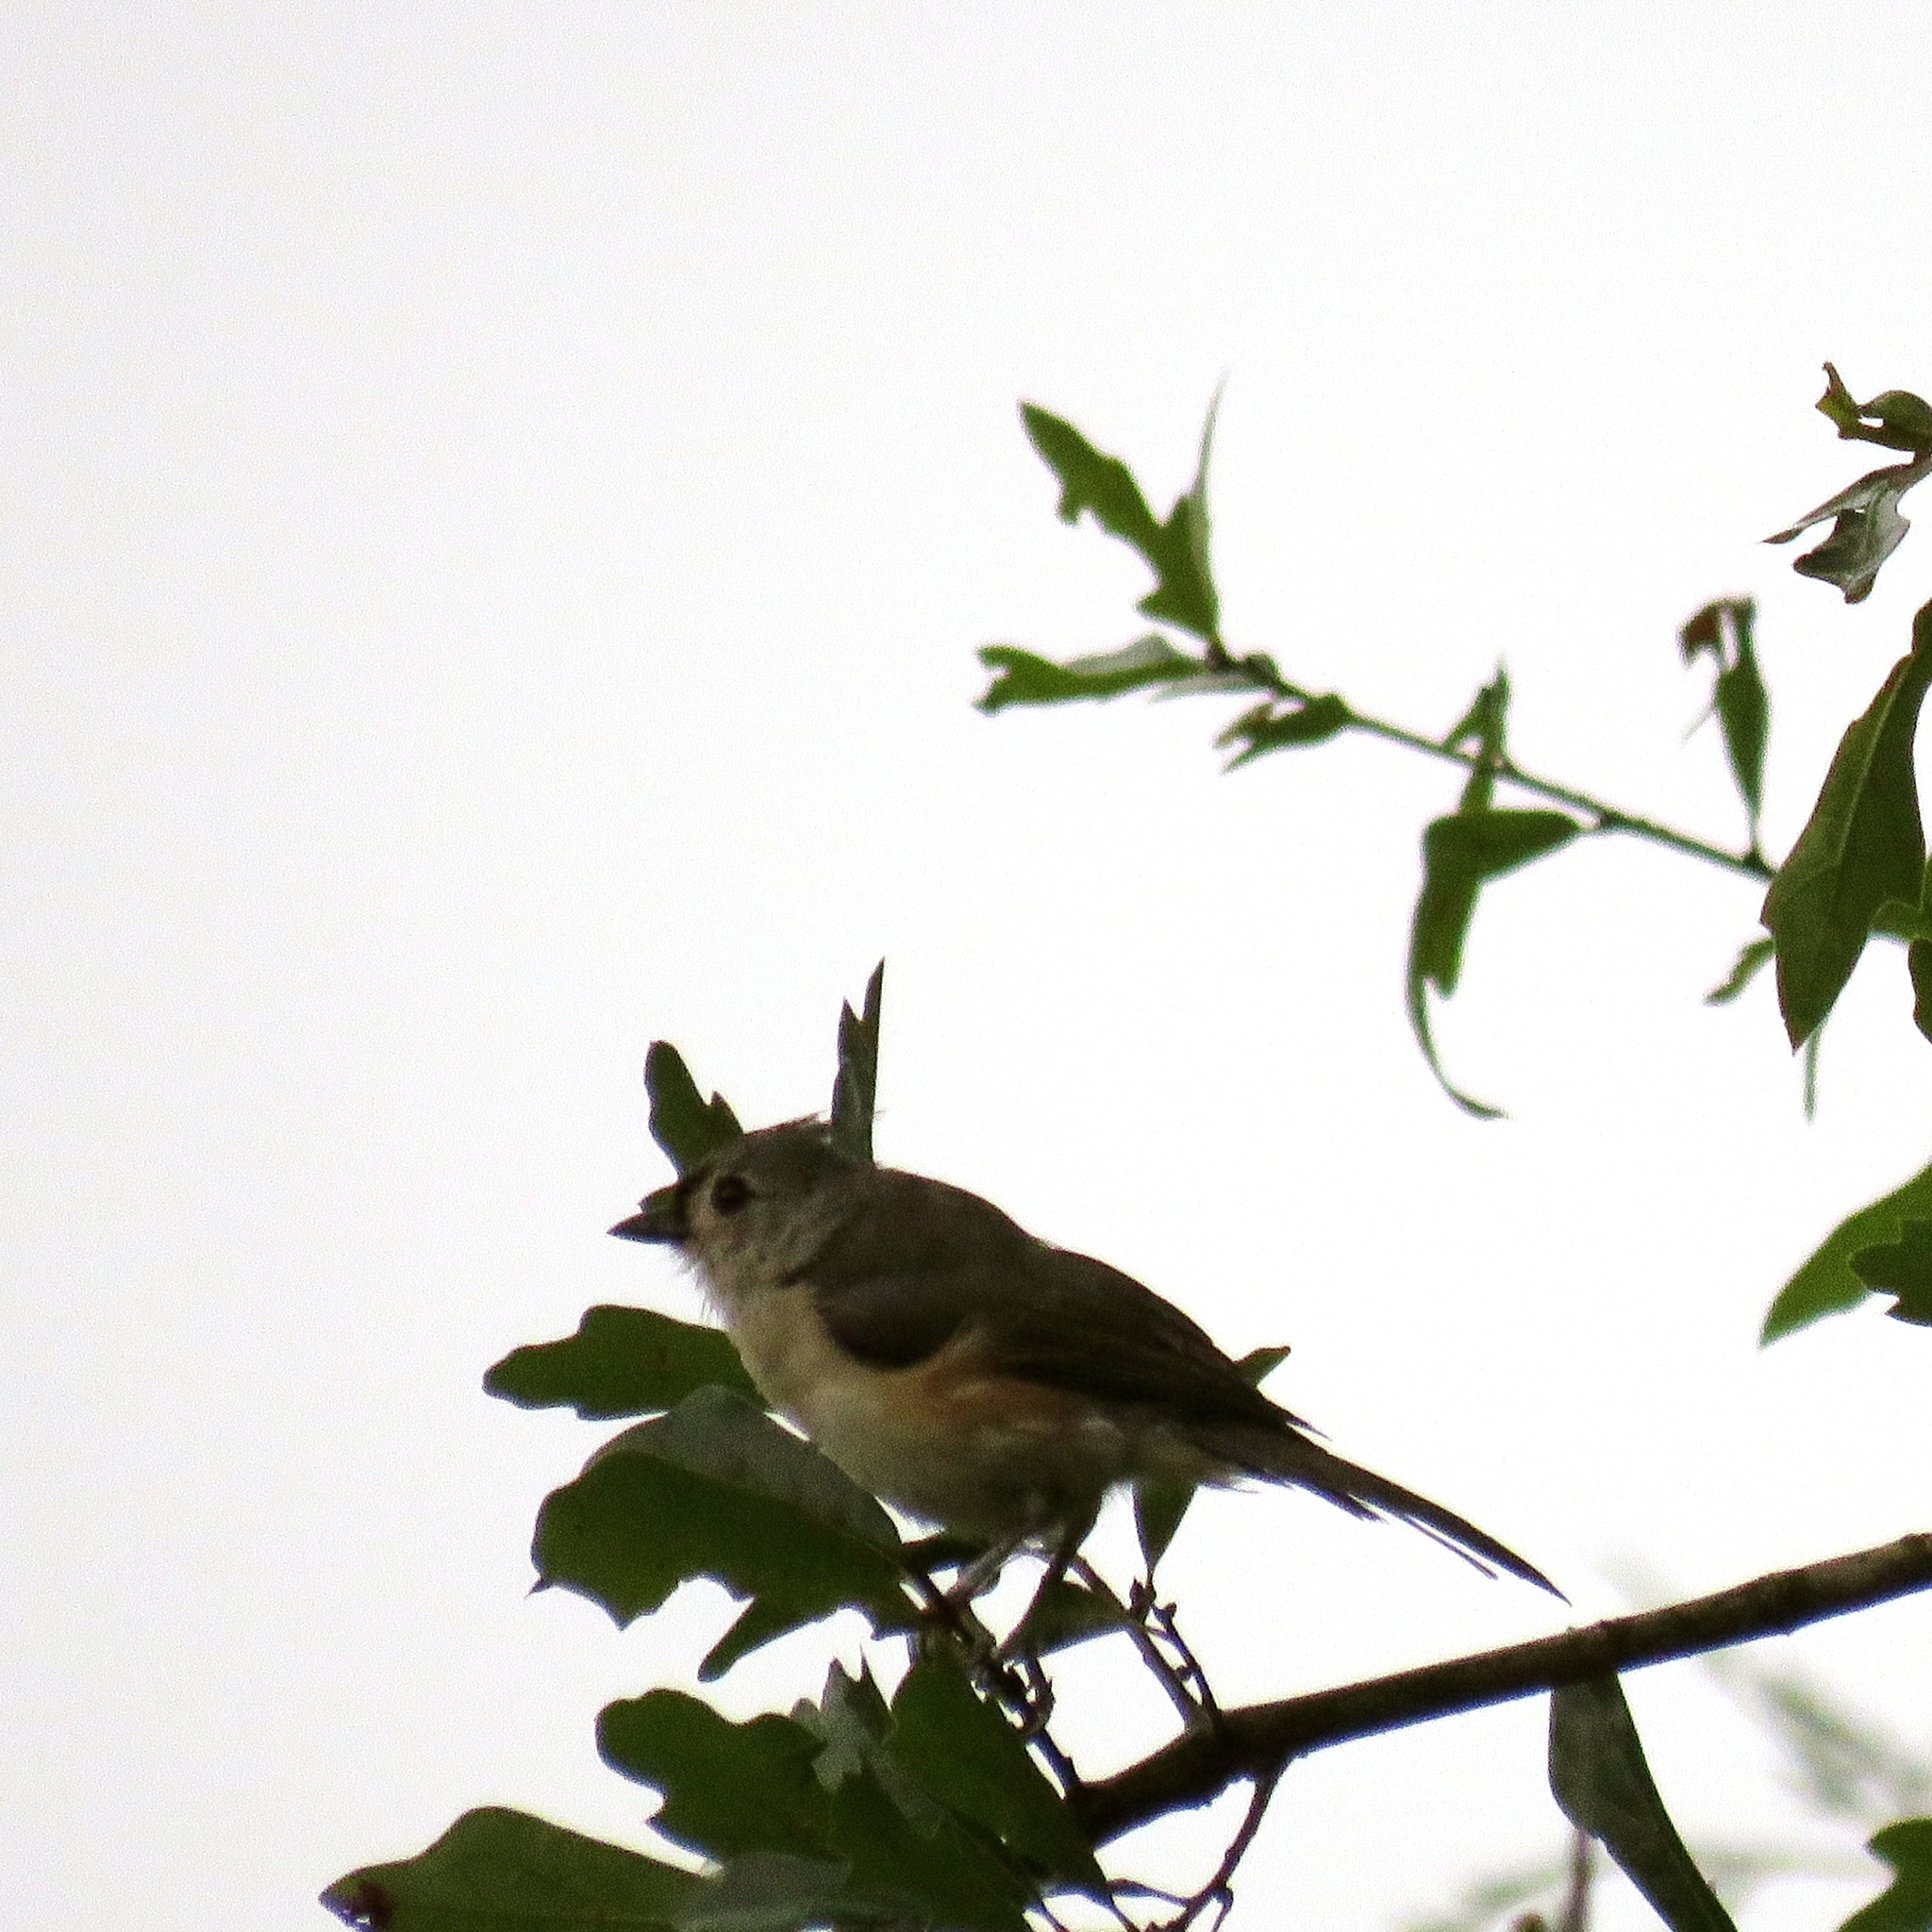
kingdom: Animalia
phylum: Chordata
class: Aves
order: Passeriformes
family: Paridae
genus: Baeolophus
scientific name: Baeolophus bicolor
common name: Tufted titmouse
